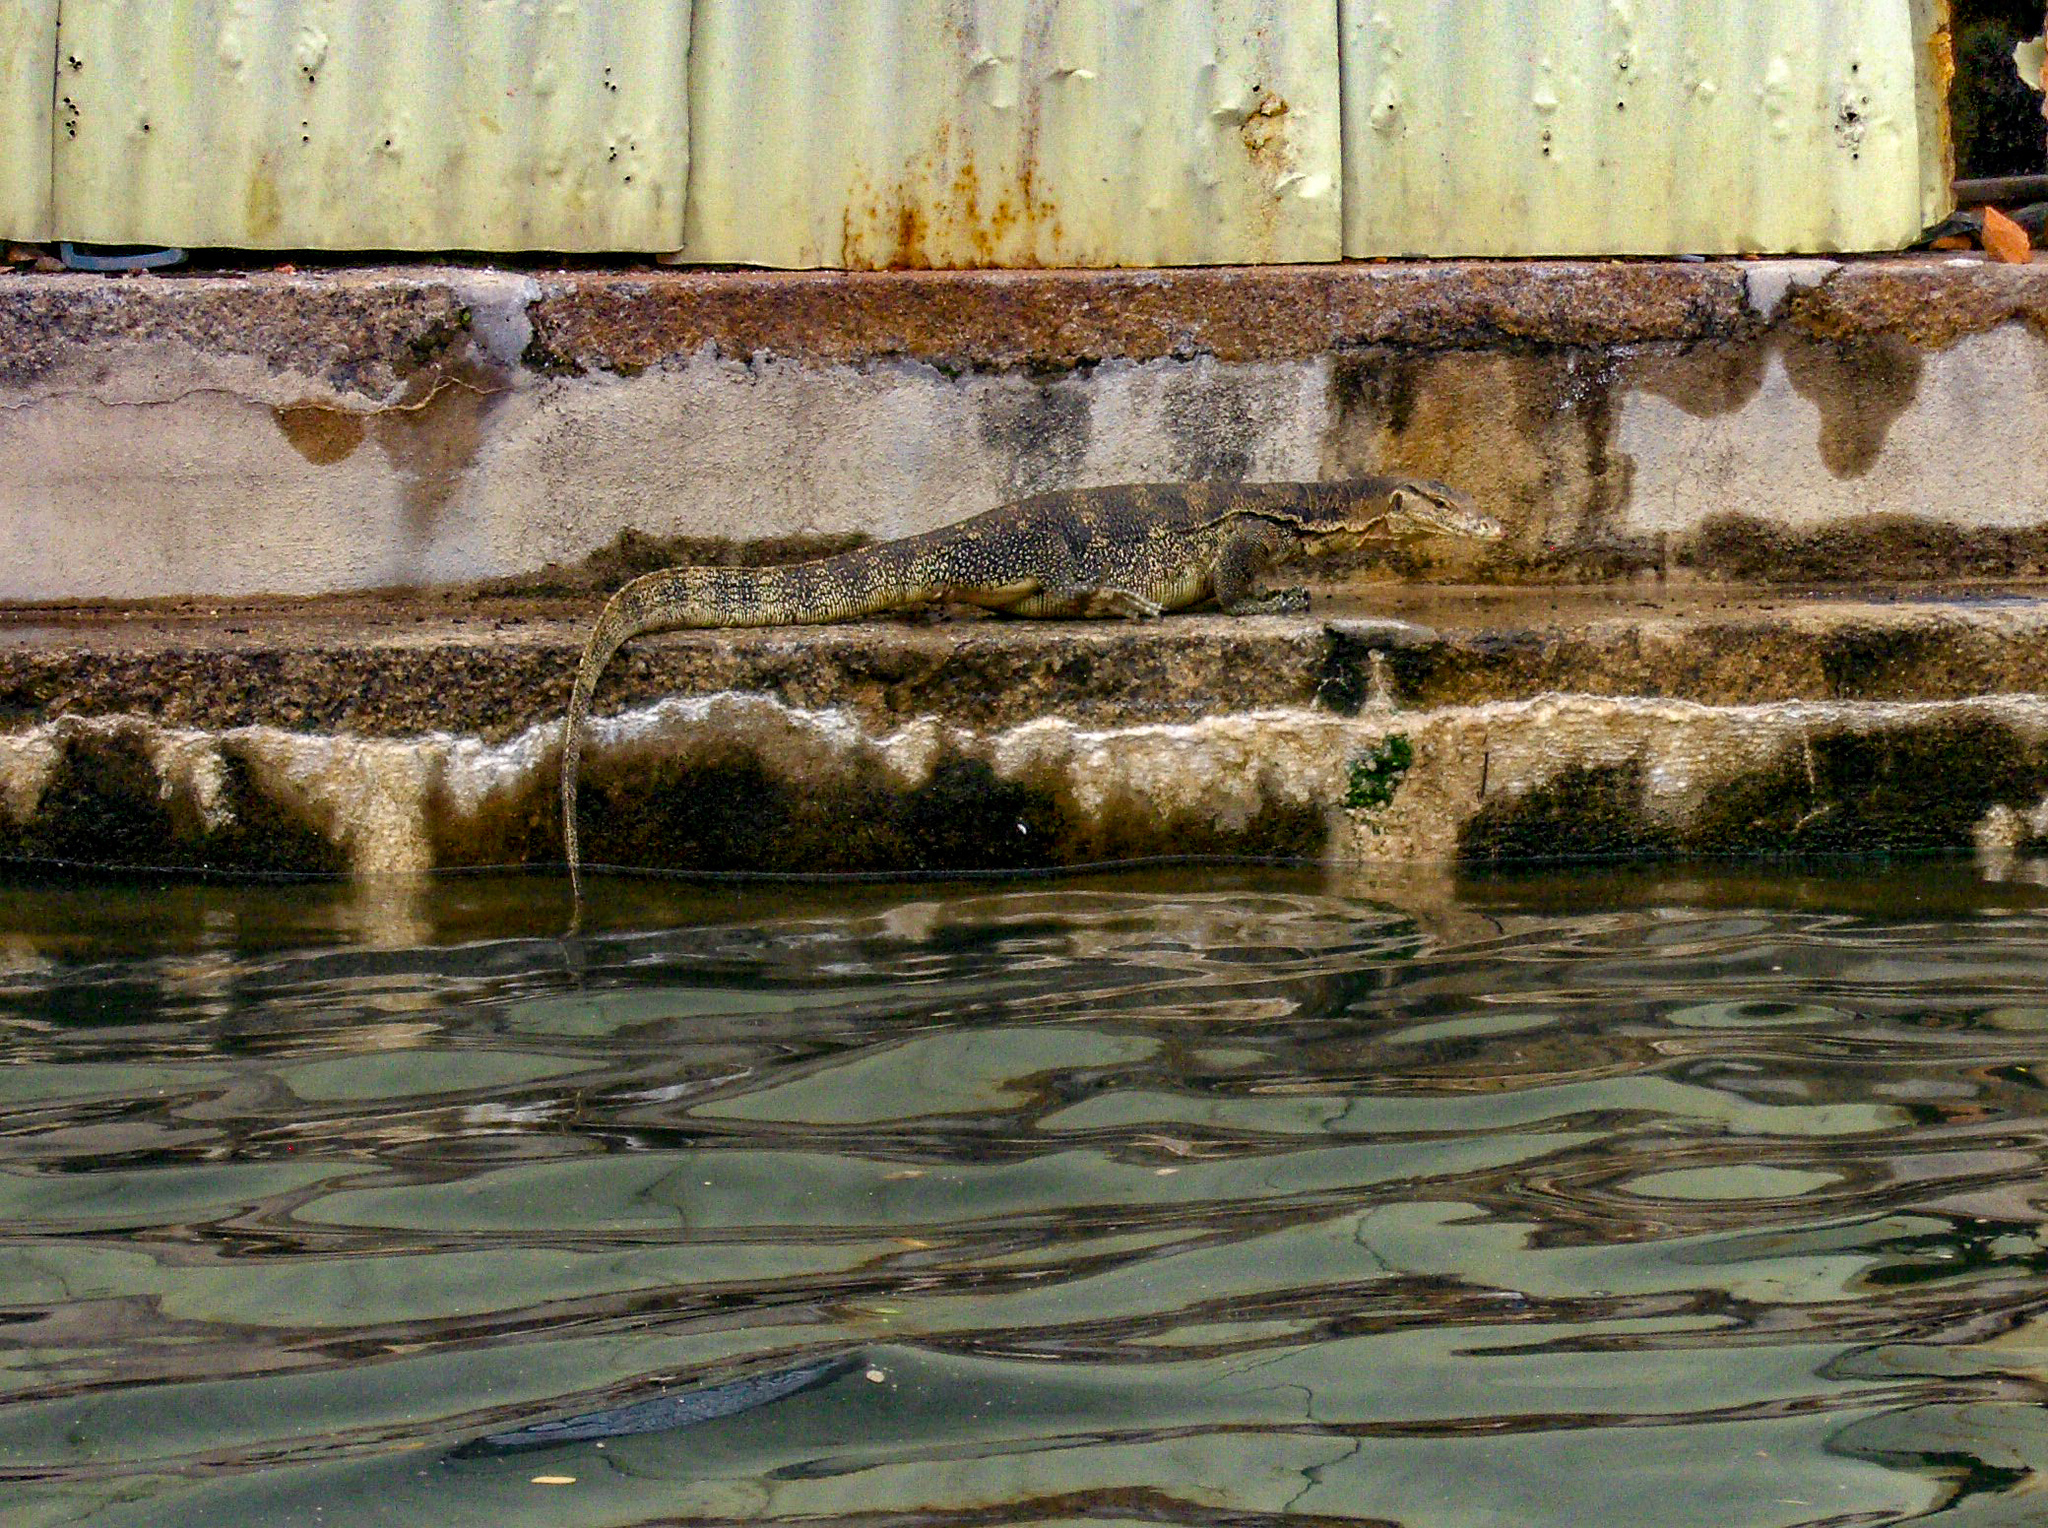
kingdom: Animalia
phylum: Chordata
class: Squamata
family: Varanidae
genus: Varanus
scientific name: Varanus salvator
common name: Common water monitor
